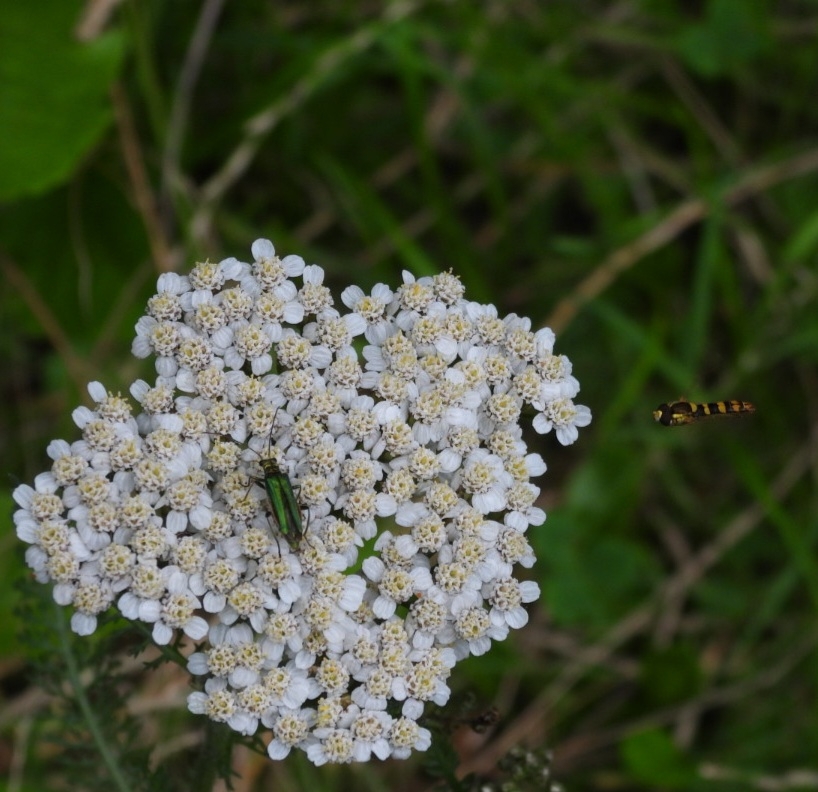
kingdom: Animalia
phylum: Arthropoda
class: Insecta
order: Coleoptera
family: Oedemeridae
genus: Oedemera
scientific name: Oedemera nobilis
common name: Swollen-thighed beetle
